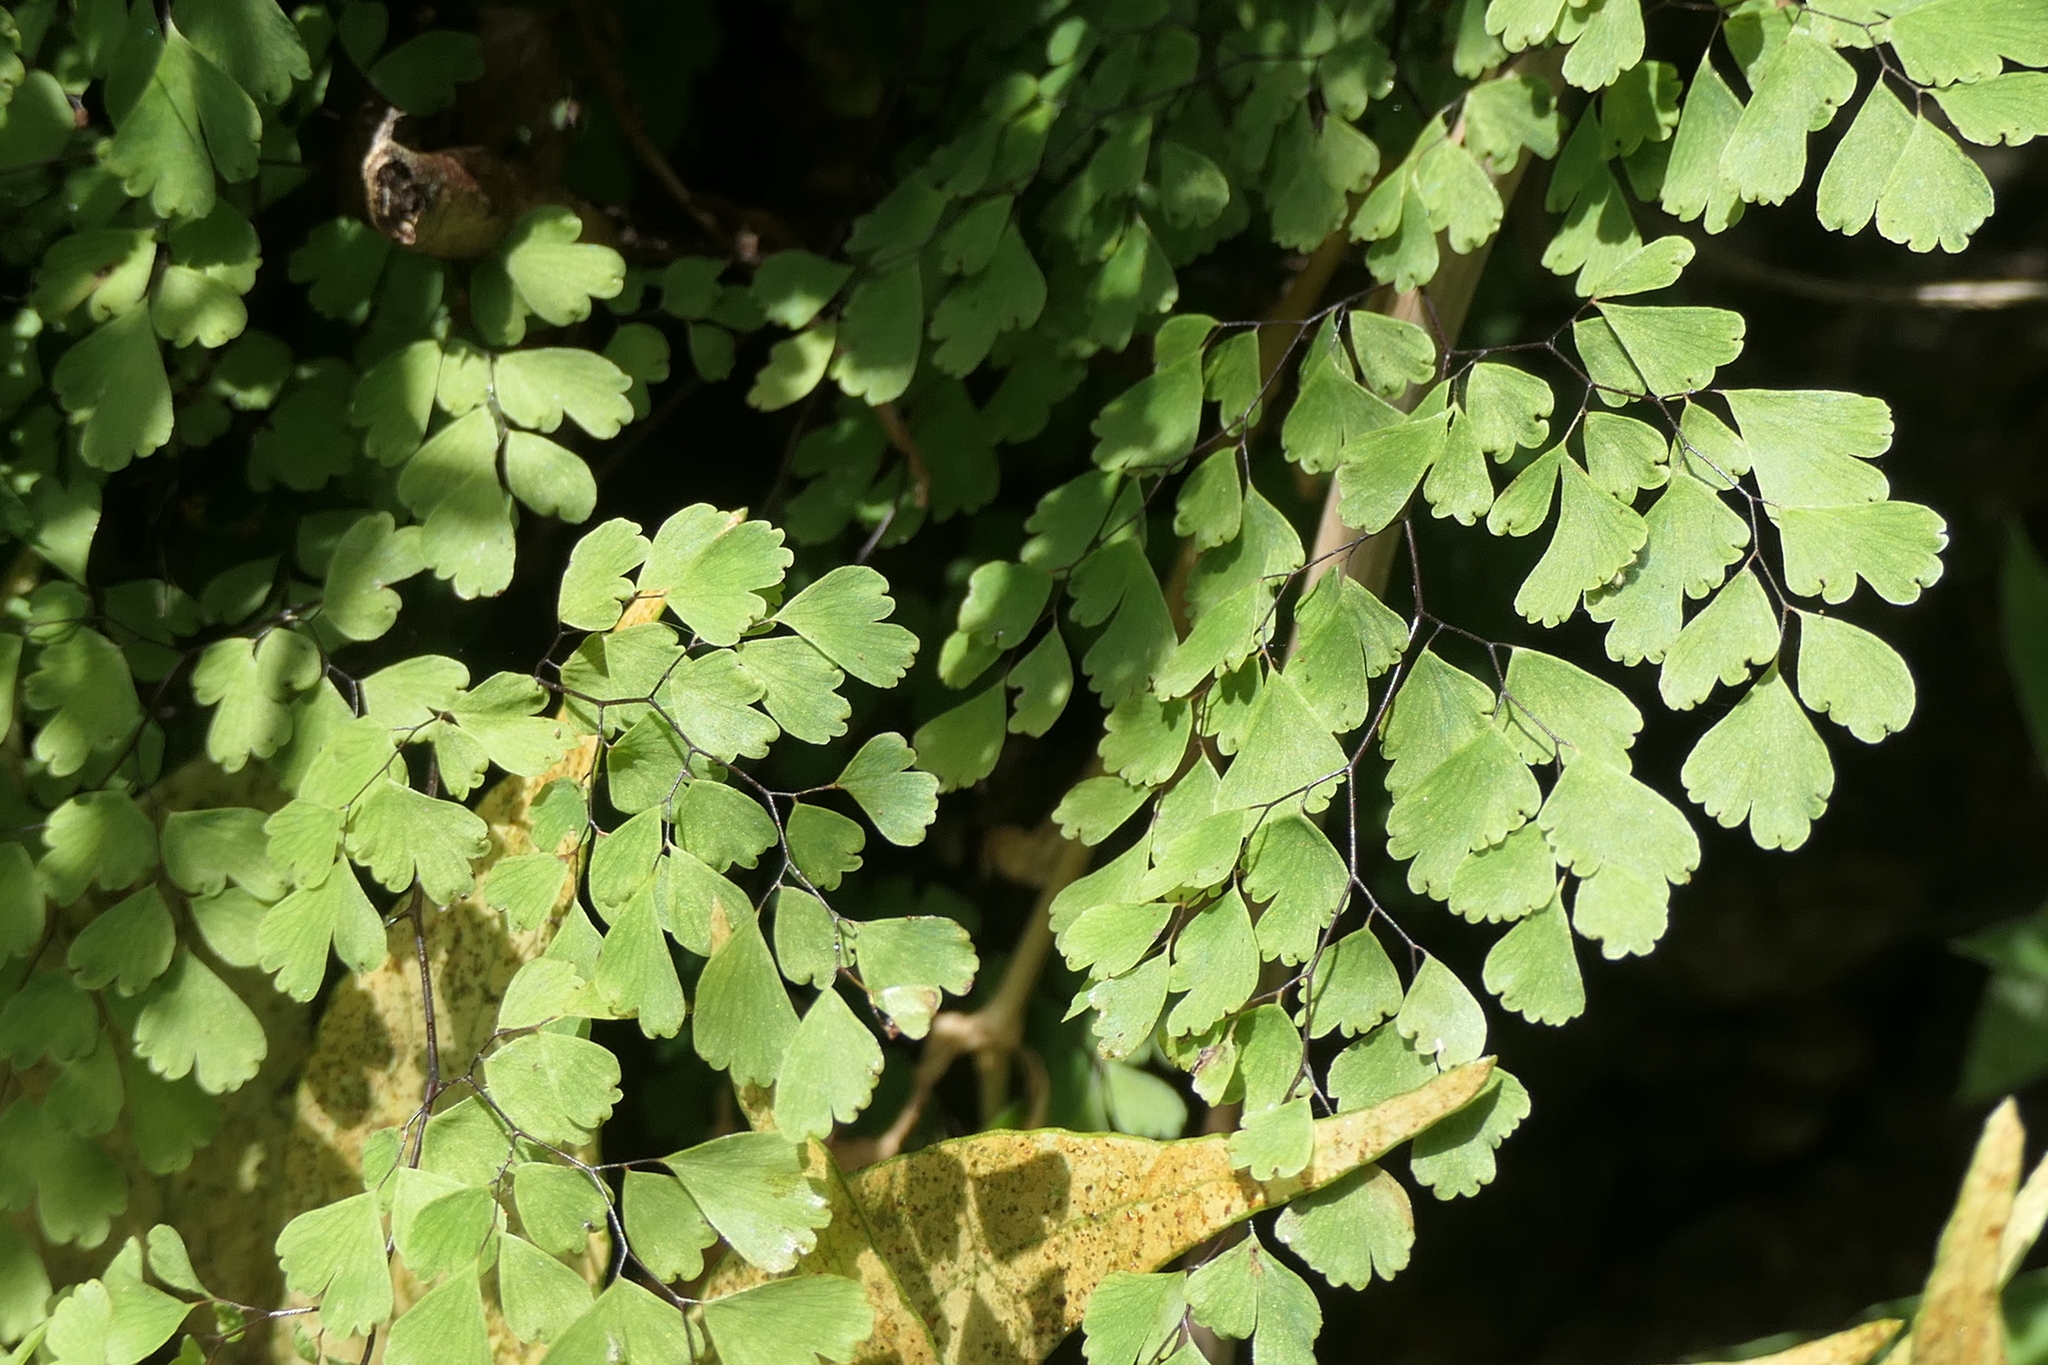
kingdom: Plantae
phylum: Tracheophyta
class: Polypodiopsida
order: Polypodiales
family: Pteridaceae
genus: Adiantum
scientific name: Adiantum capillus-veneris
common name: Maidenhair fern
